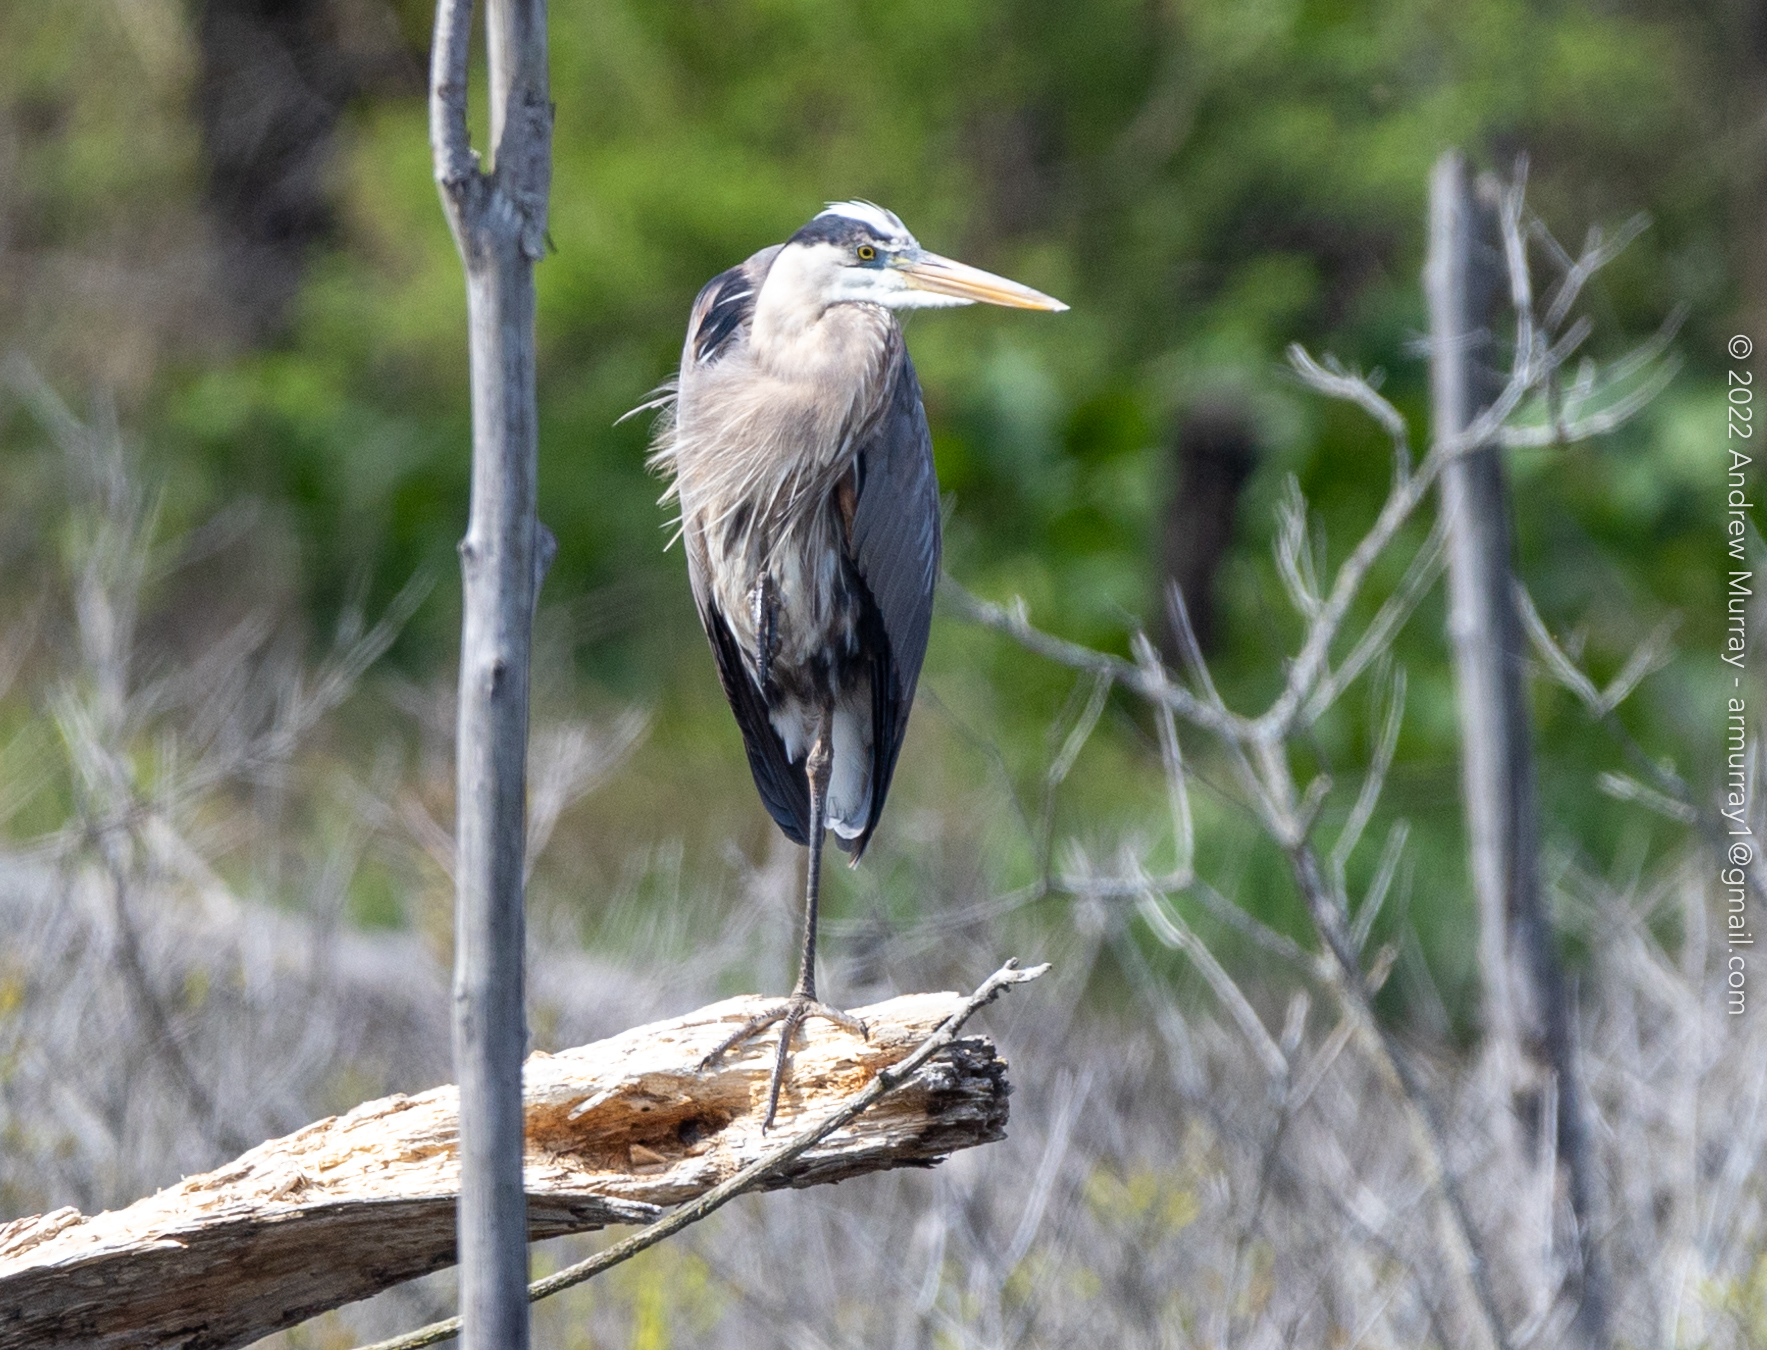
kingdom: Animalia
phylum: Chordata
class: Aves
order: Pelecaniformes
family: Ardeidae
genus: Ardea
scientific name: Ardea herodias
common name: Great blue heron
